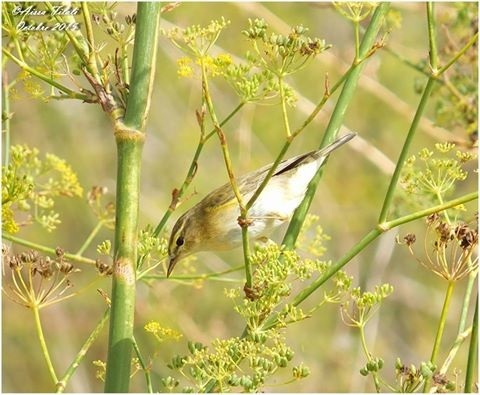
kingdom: Animalia
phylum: Chordata
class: Aves
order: Passeriformes
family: Phylloscopidae
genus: Phylloscopus
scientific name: Phylloscopus trochilus
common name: Willow warbler
